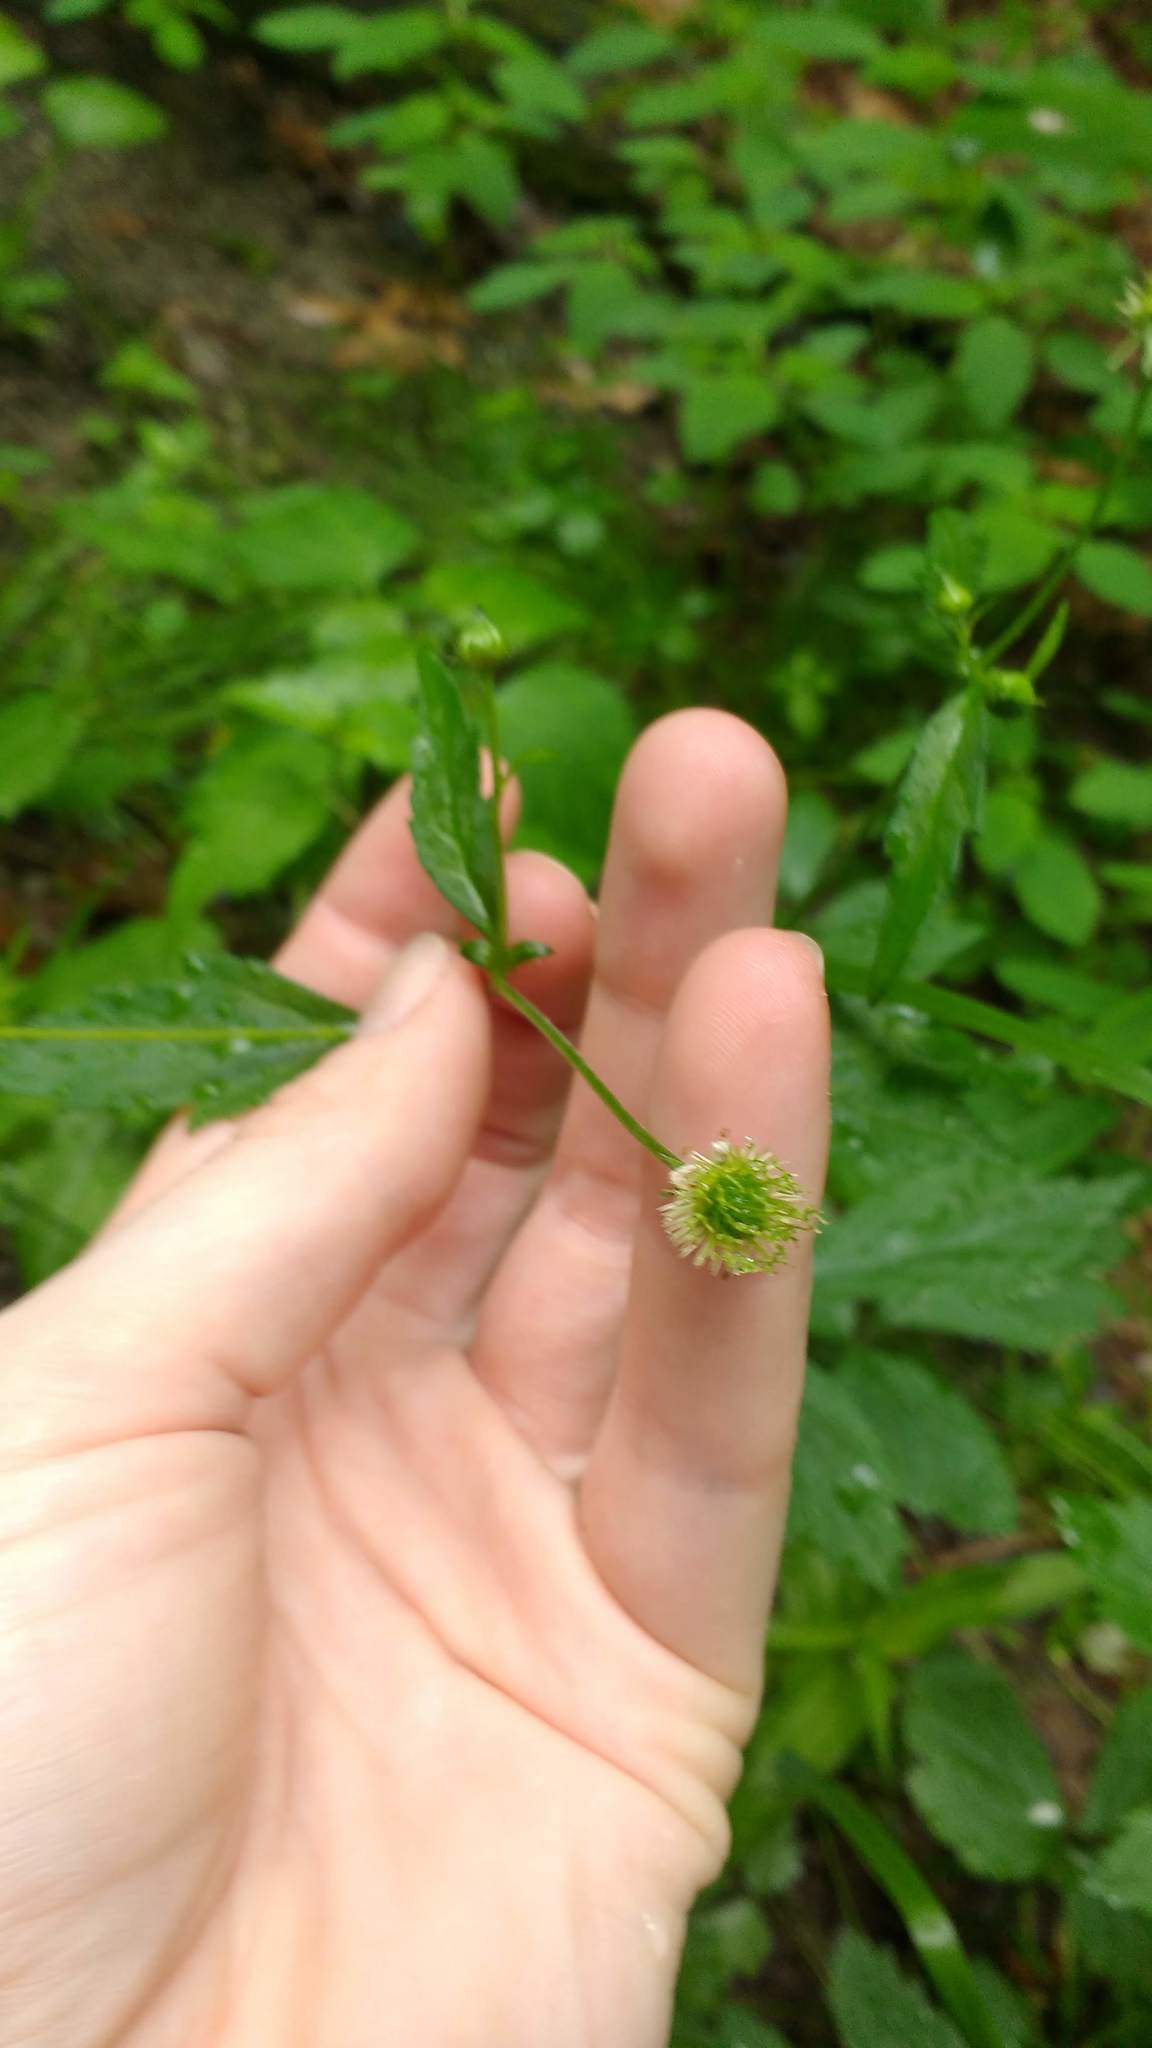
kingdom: Plantae
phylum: Tracheophyta
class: Magnoliopsida
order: Rosales
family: Rosaceae
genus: Geum
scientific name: Geum canadense
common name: White avens
